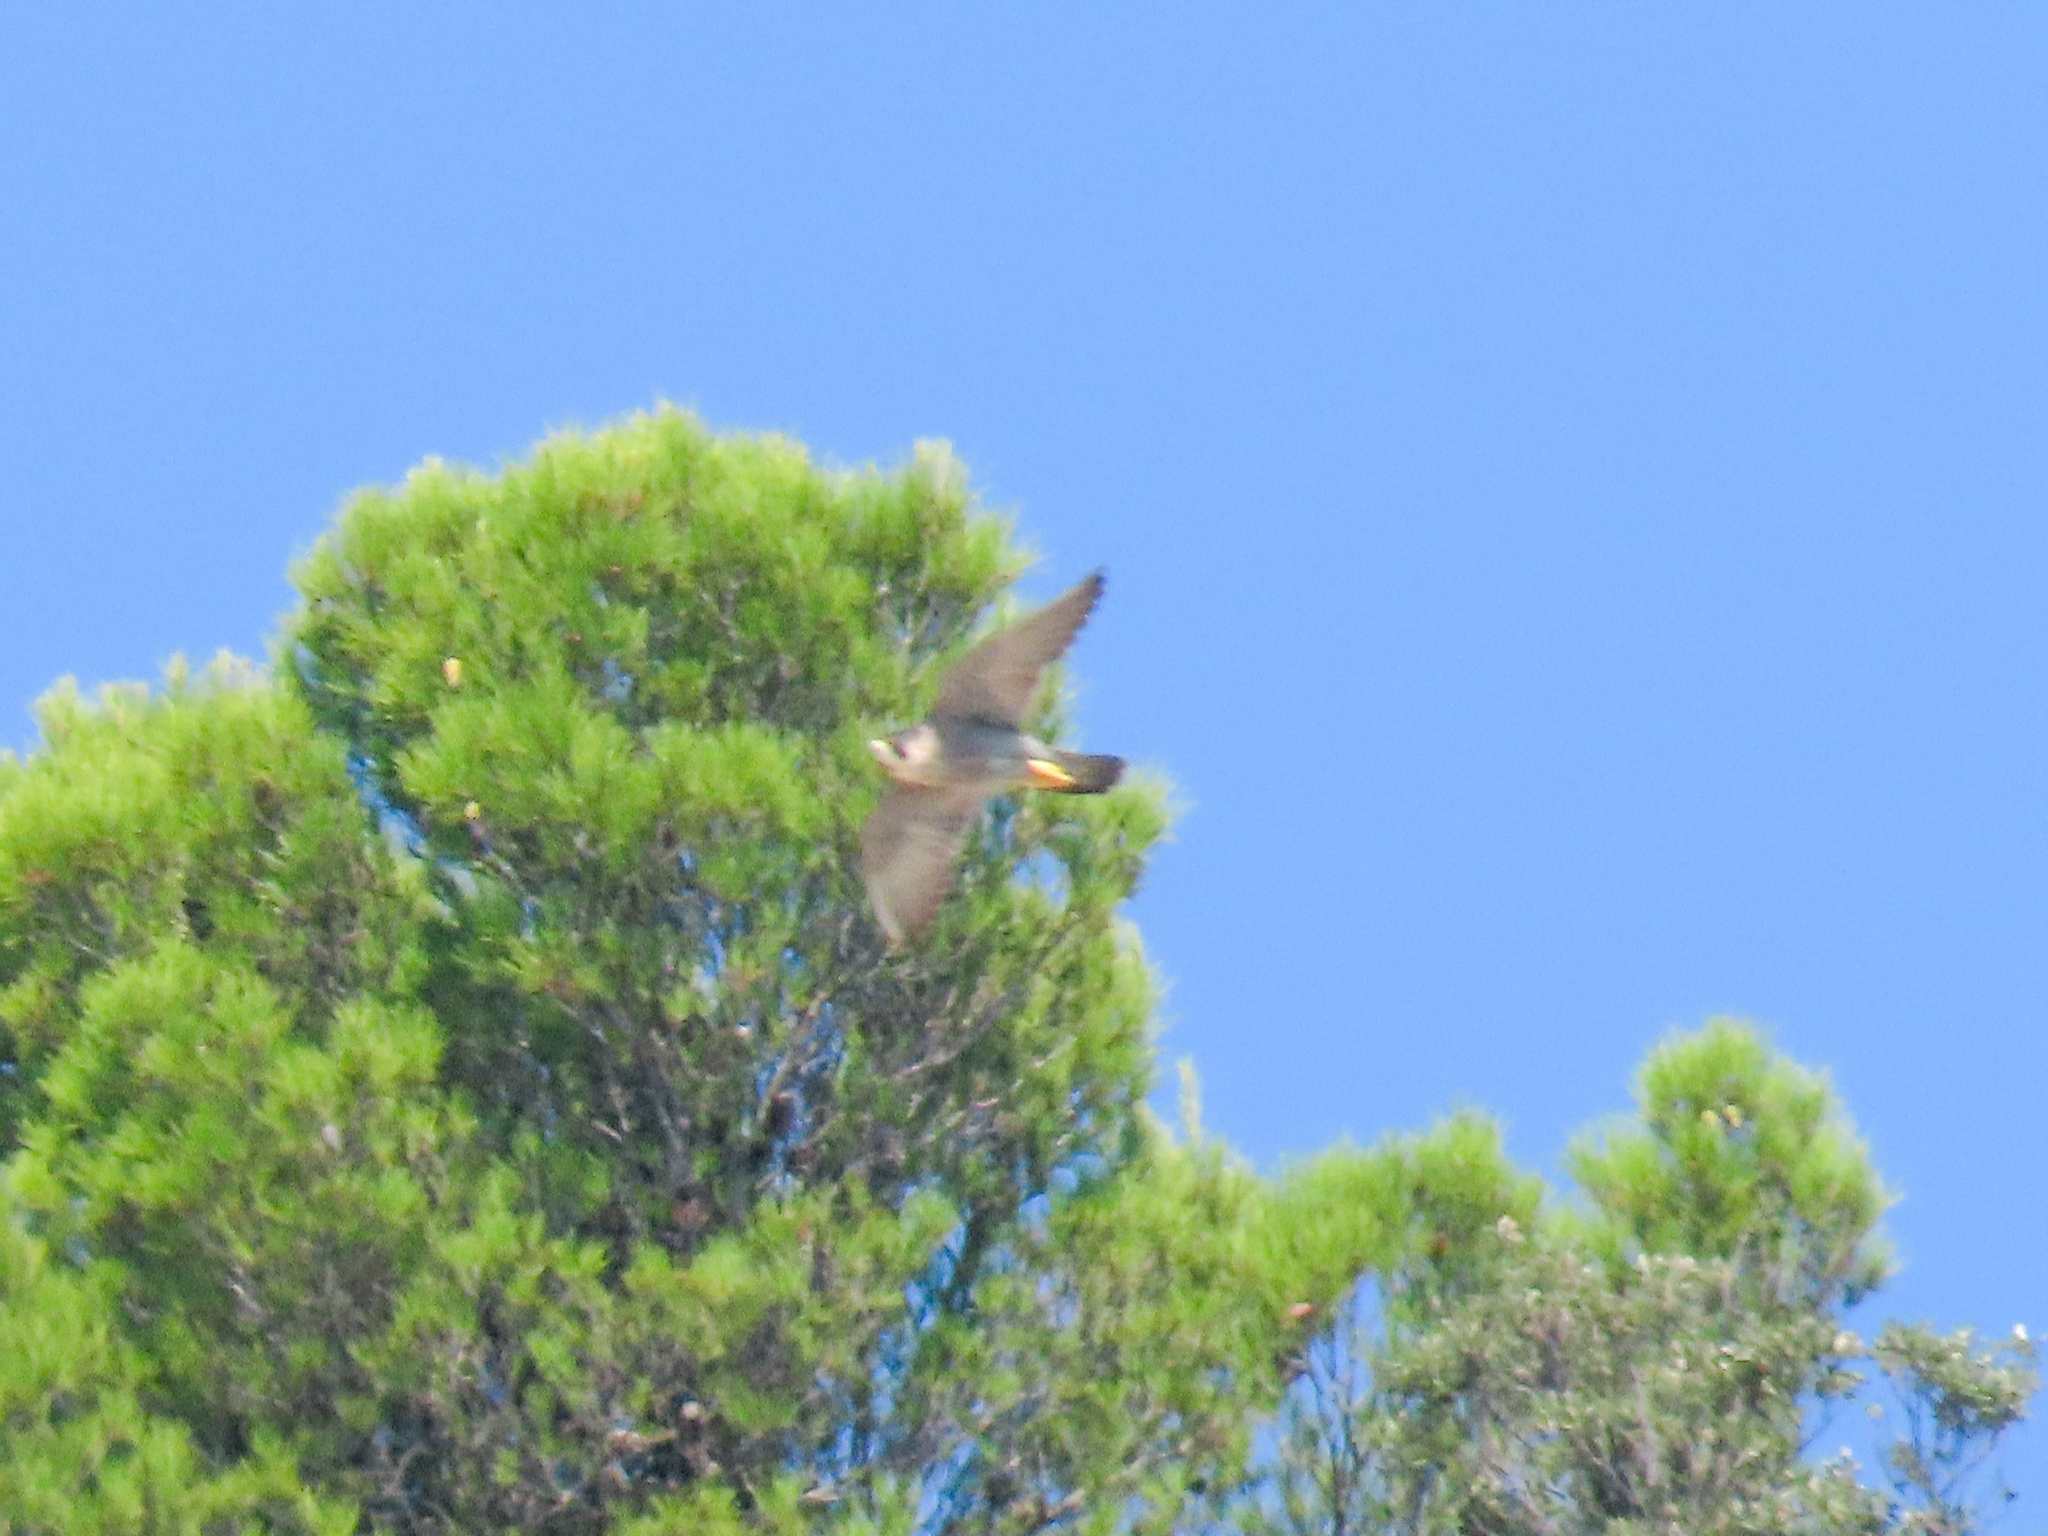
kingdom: Animalia
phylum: Chordata
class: Aves
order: Falconiformes
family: Falconidae
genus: Falco
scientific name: Falco peregrinus
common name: Peregrine falcon
